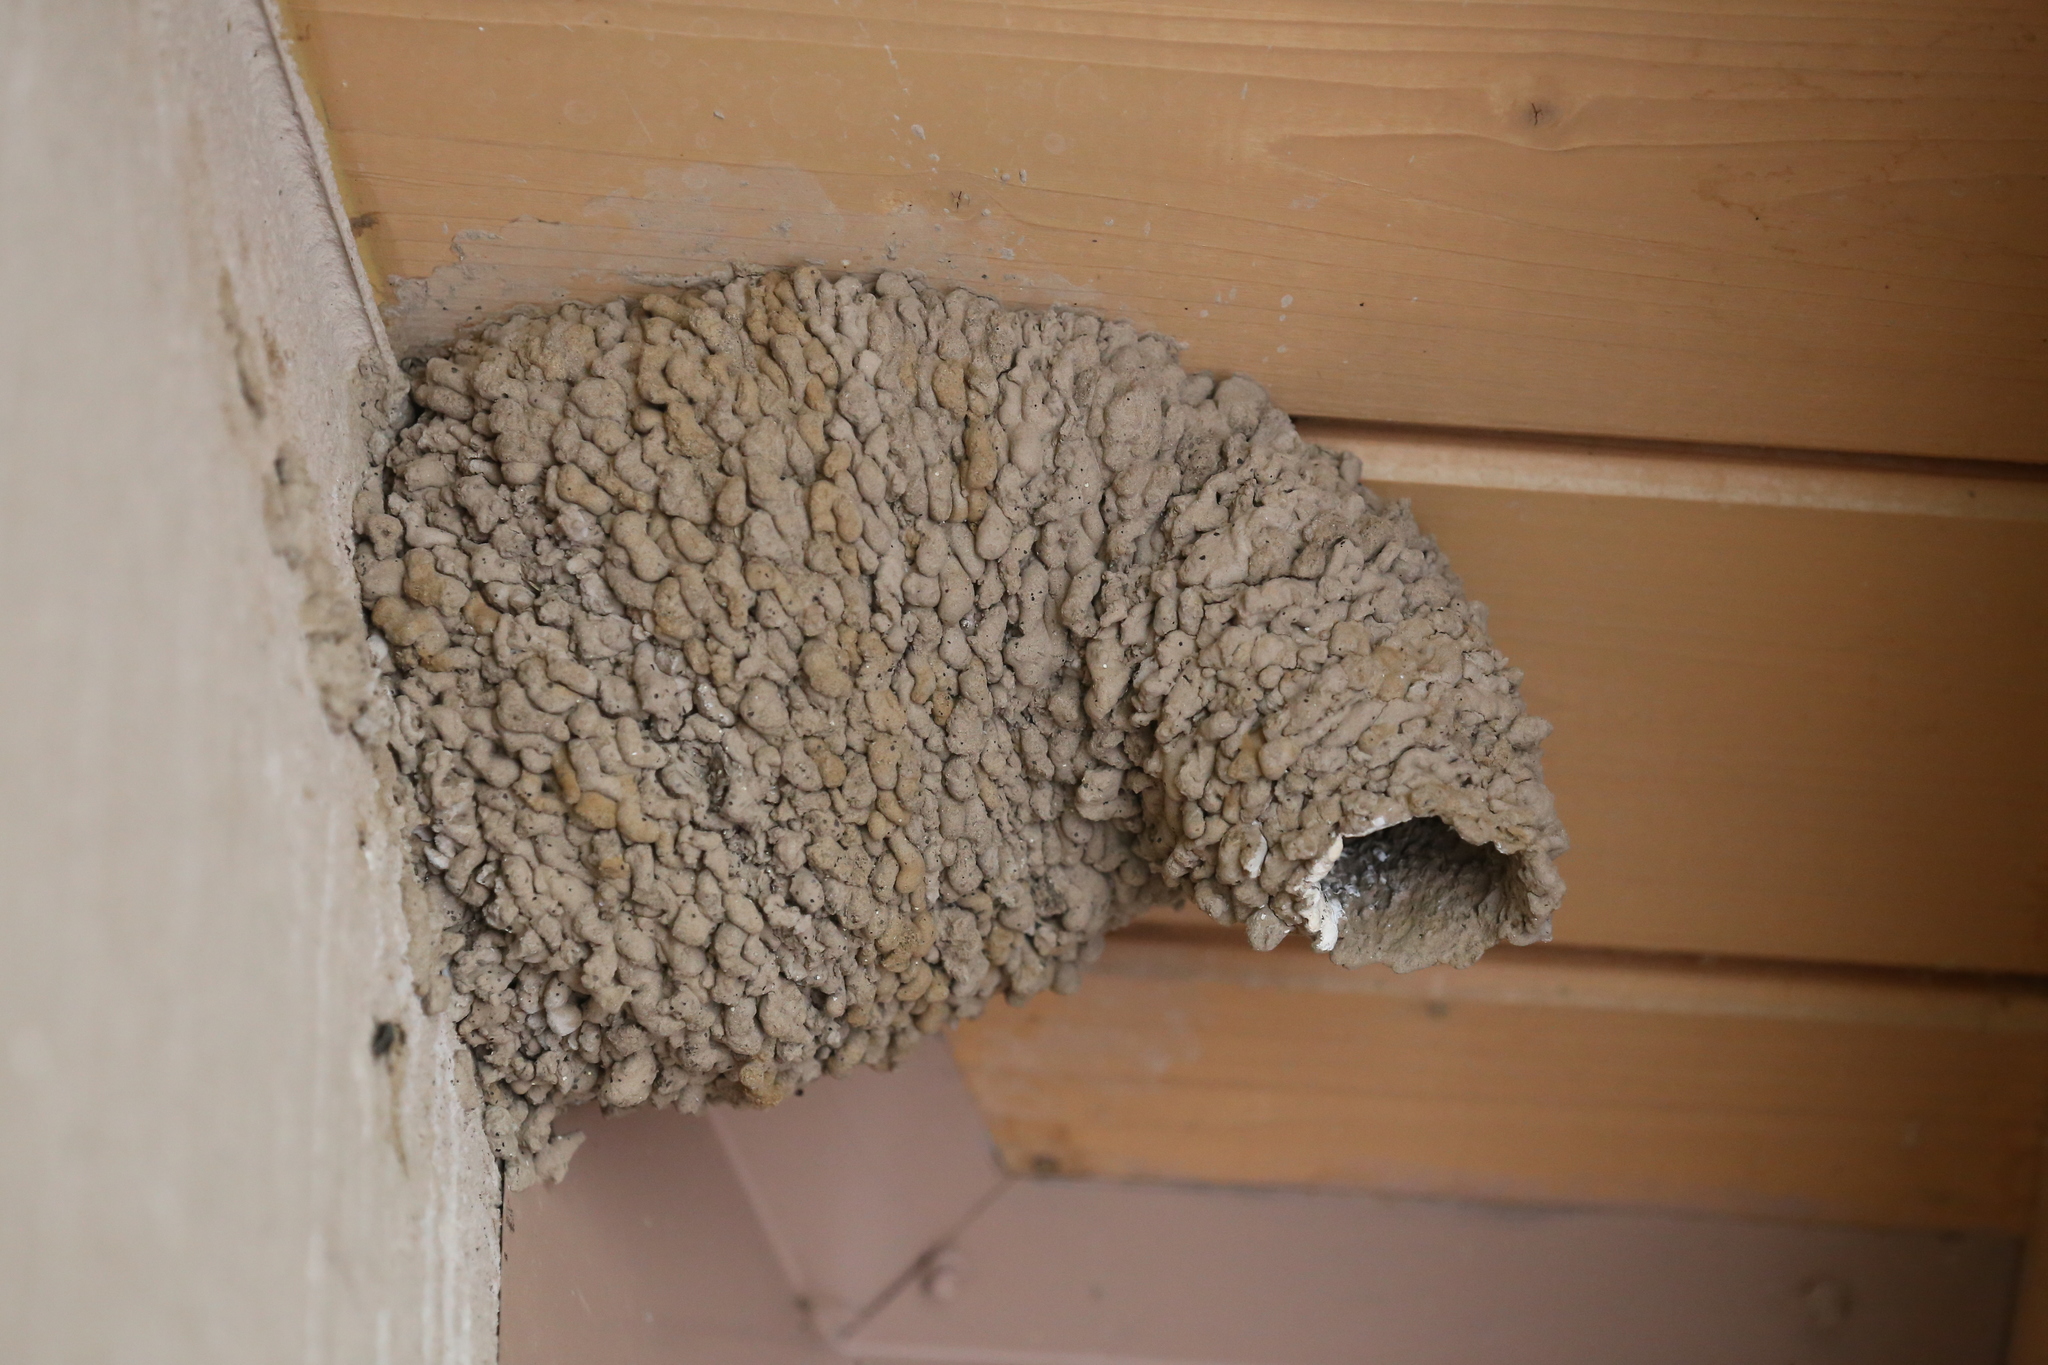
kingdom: Animalia
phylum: Chordata
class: Aves
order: Passeriformes
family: Hirundinidae
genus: Petrochelidon
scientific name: Petrochelidon pyrrhonota
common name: American cliff swallow
